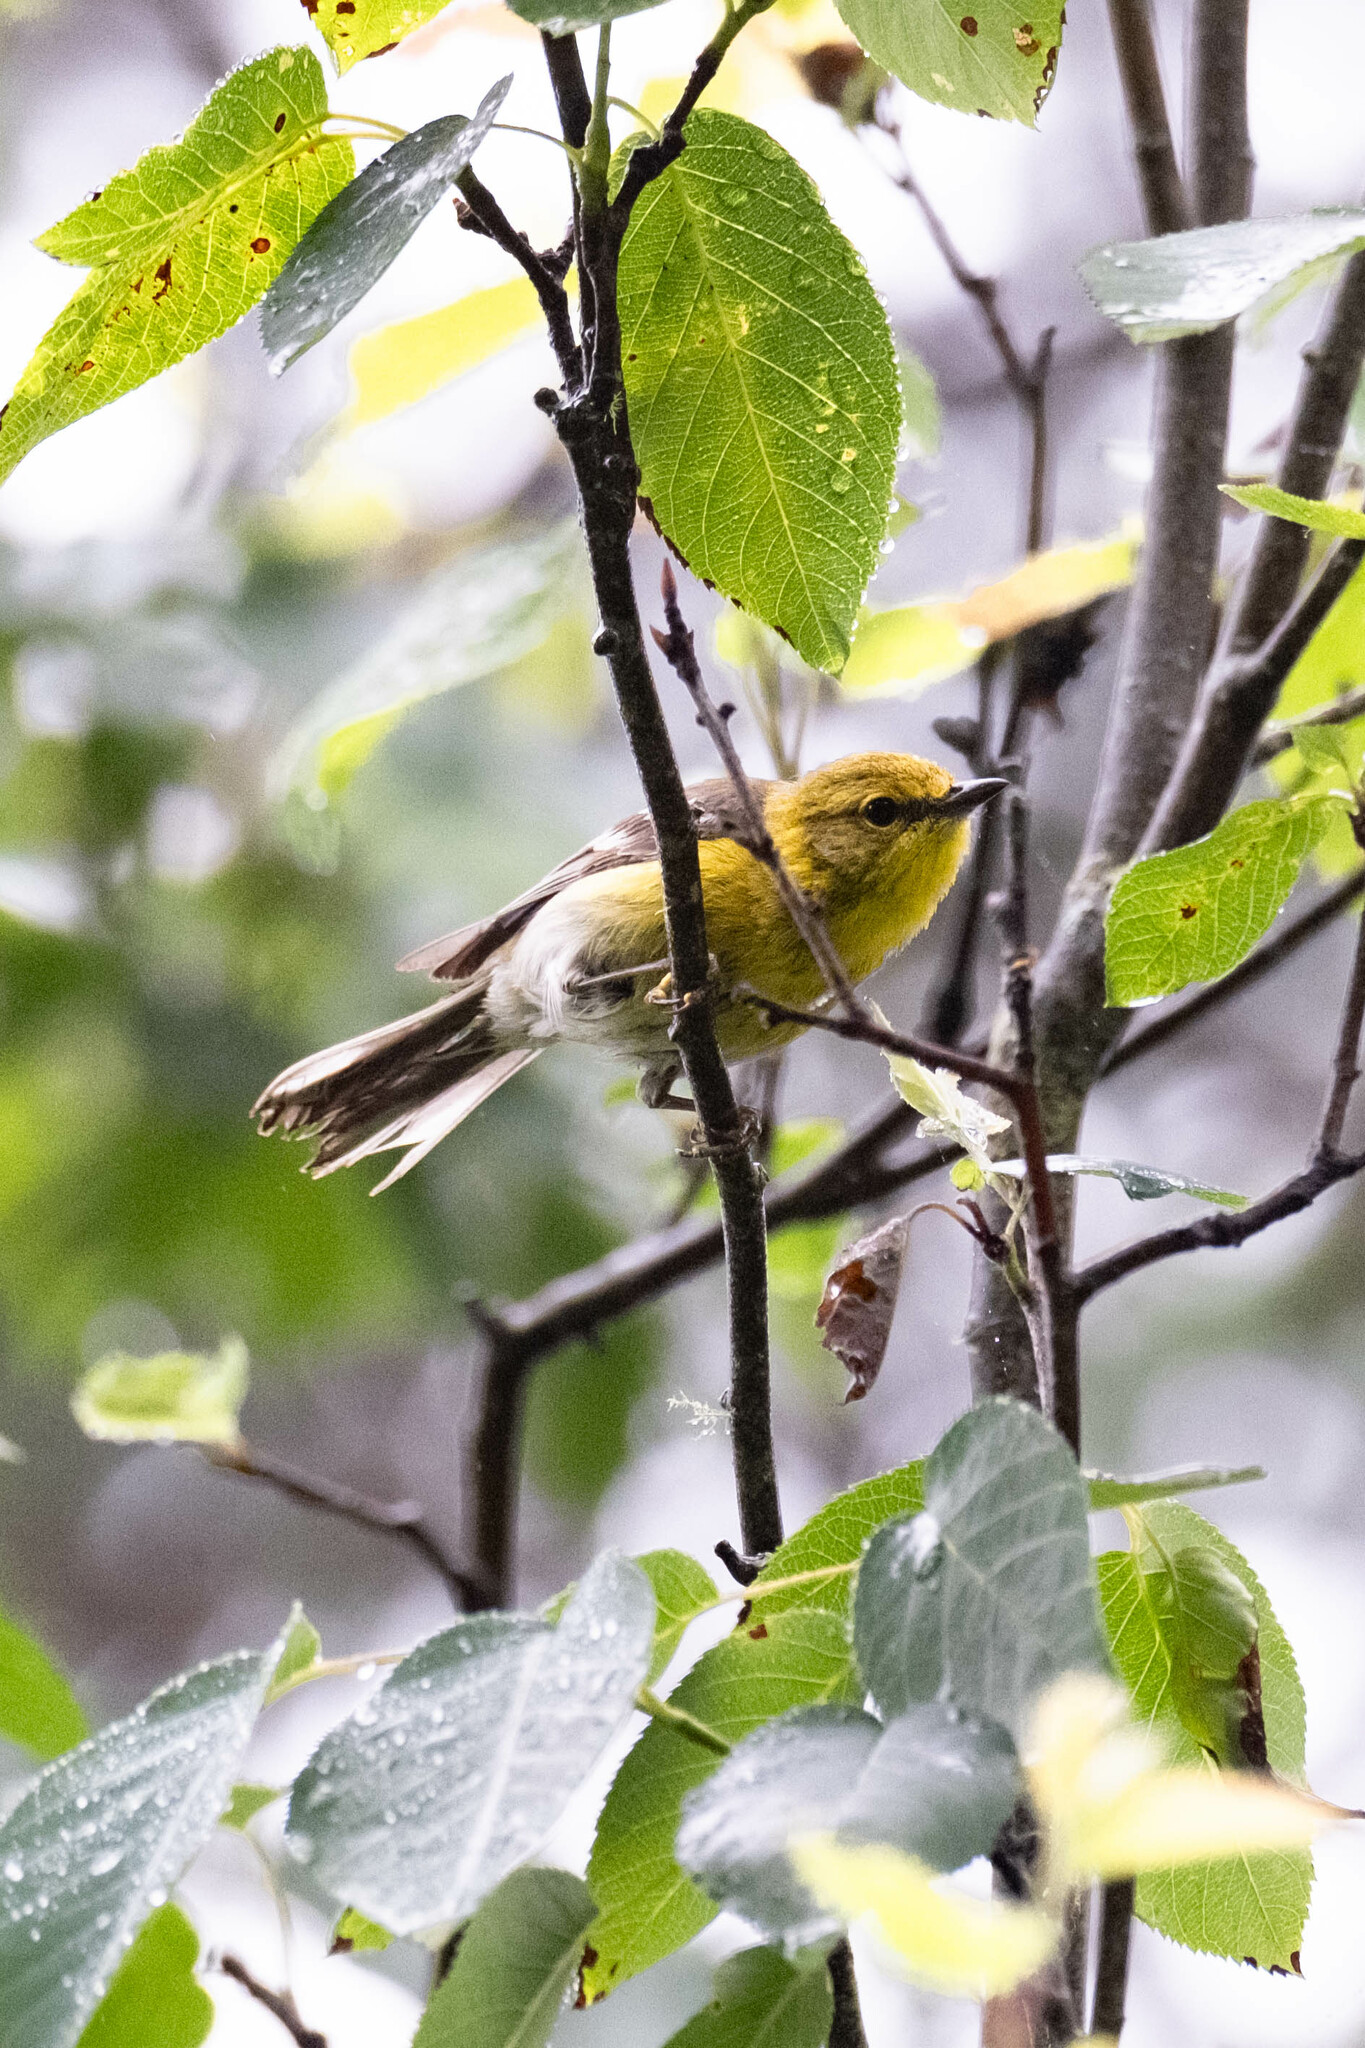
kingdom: Animalia
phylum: Chordata
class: Aves
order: Passeriformes
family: Parulidae
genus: Setophaga
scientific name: Setophaga pinus
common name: Pine warbler
